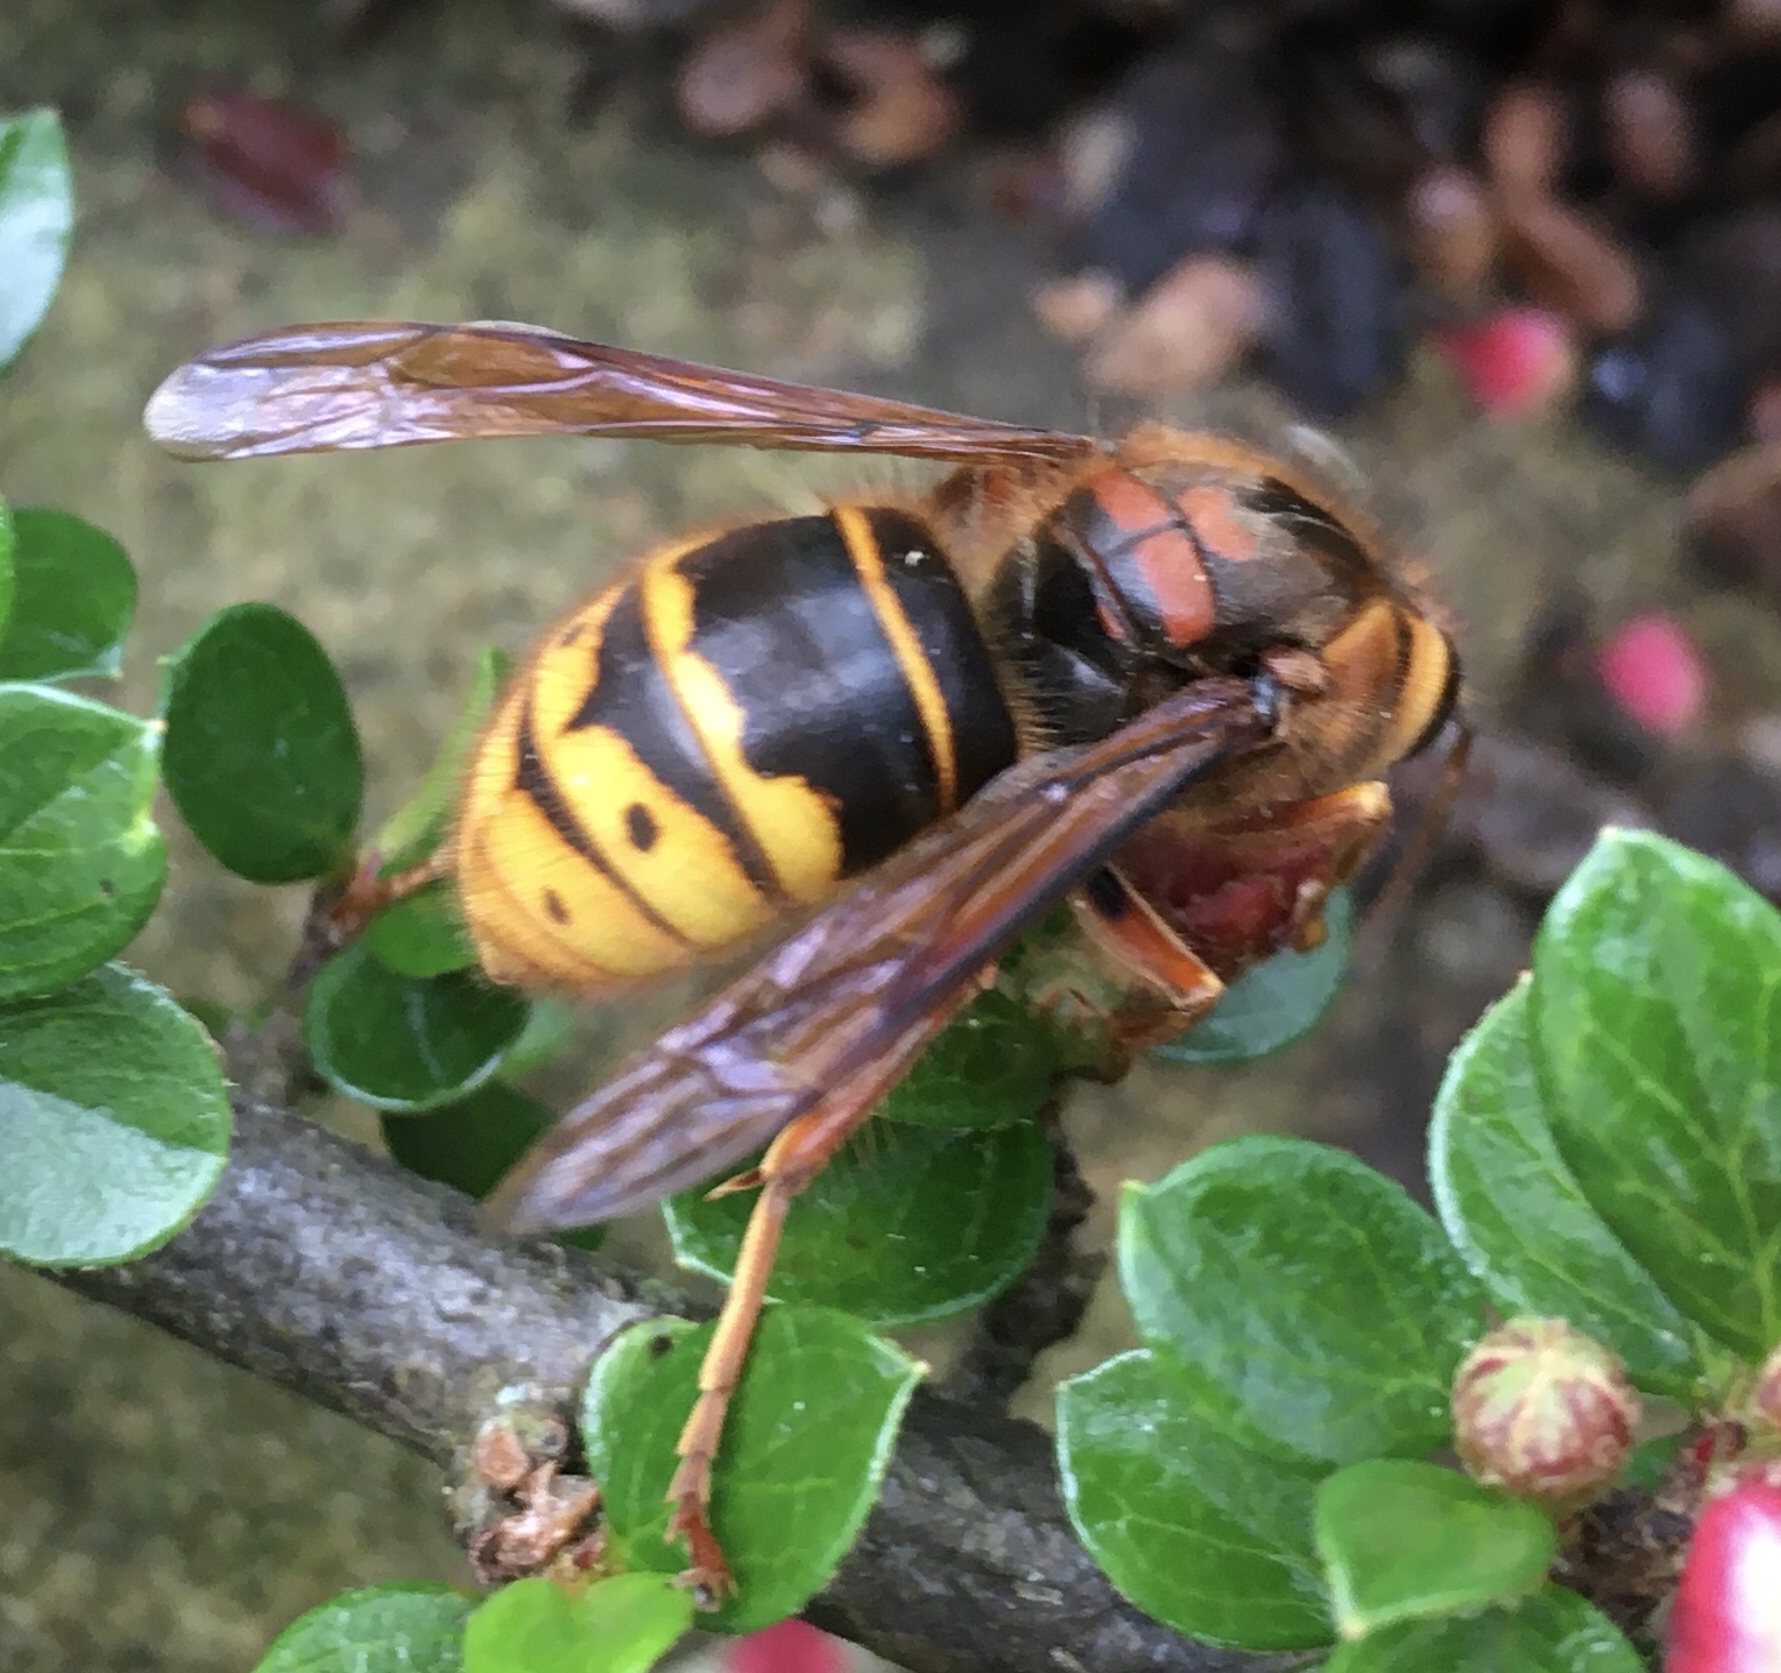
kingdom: Animalia
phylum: Arthropoda
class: Insecta
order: Hymenoptera
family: Vespidae
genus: Dolichovespula
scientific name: Dolichovespula media
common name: Median wasp
